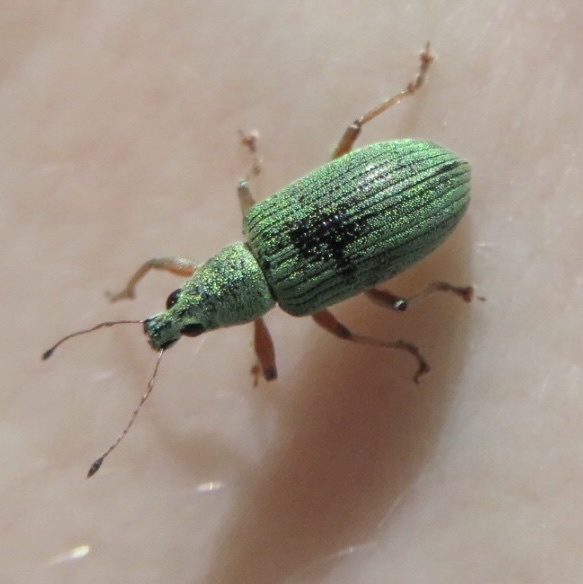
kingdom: Animalia
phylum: Arthropoda
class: Insecta
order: Coleoptera
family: Curculionidae
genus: Polydrusus
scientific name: Polydrusus formosus
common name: Weevil
